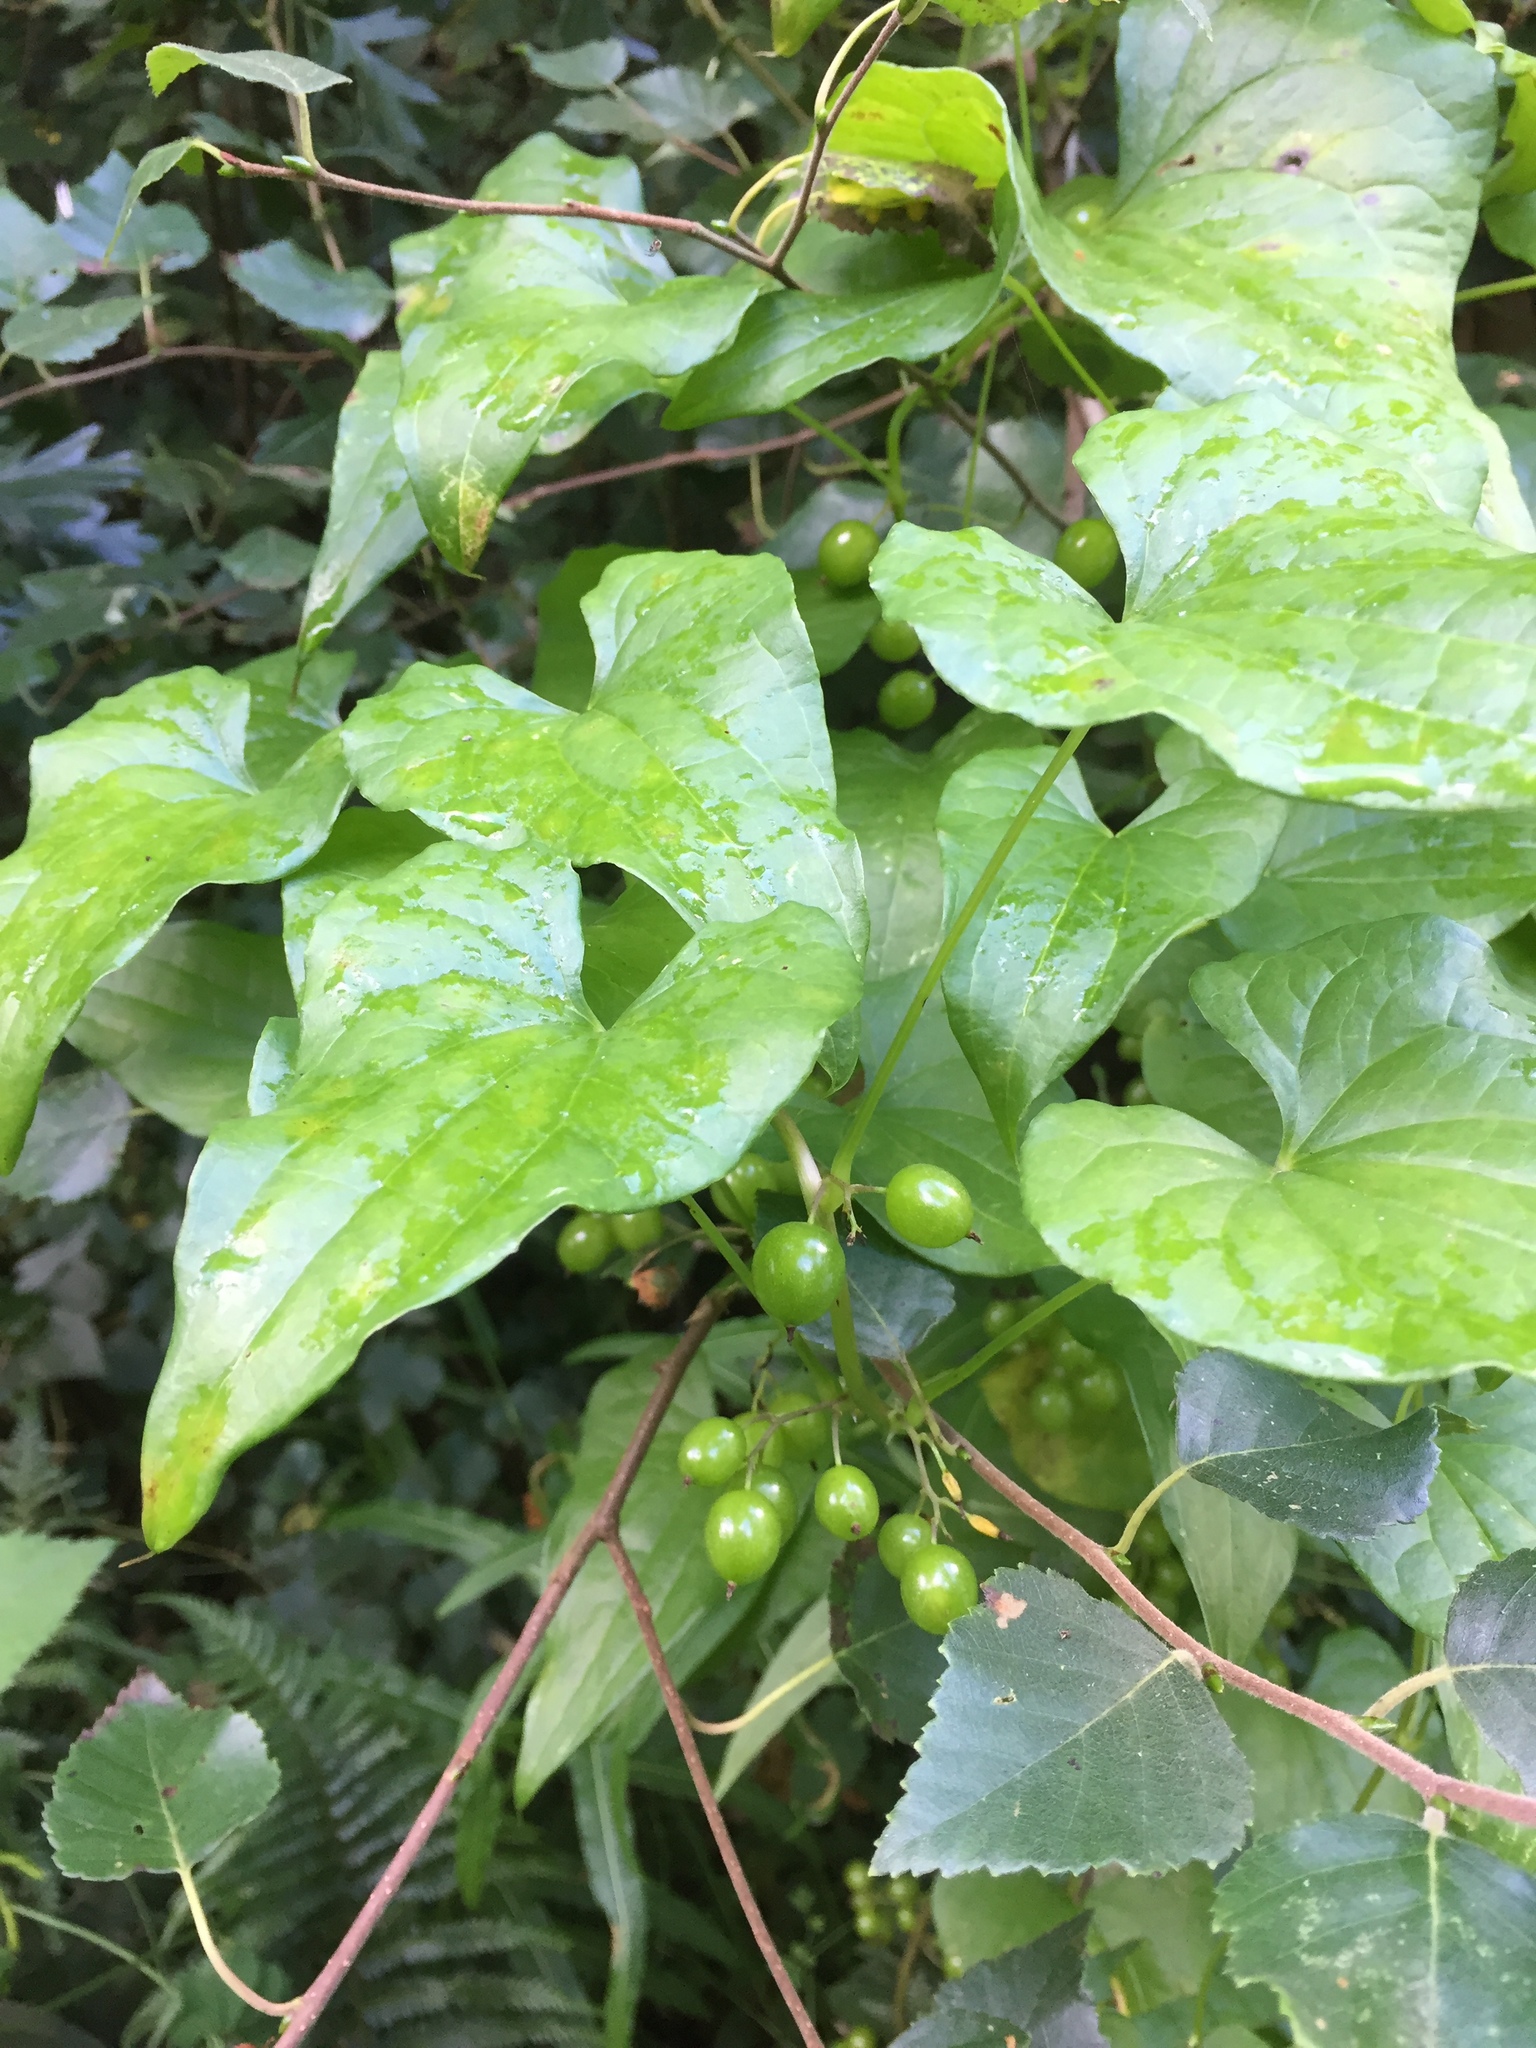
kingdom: Plantae
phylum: Tracheophyta
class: Liliopsida
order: Dioscoreales
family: Dioscoreaceae
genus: Dioscorea
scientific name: Dioscorea communis
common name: Black-bindweed
